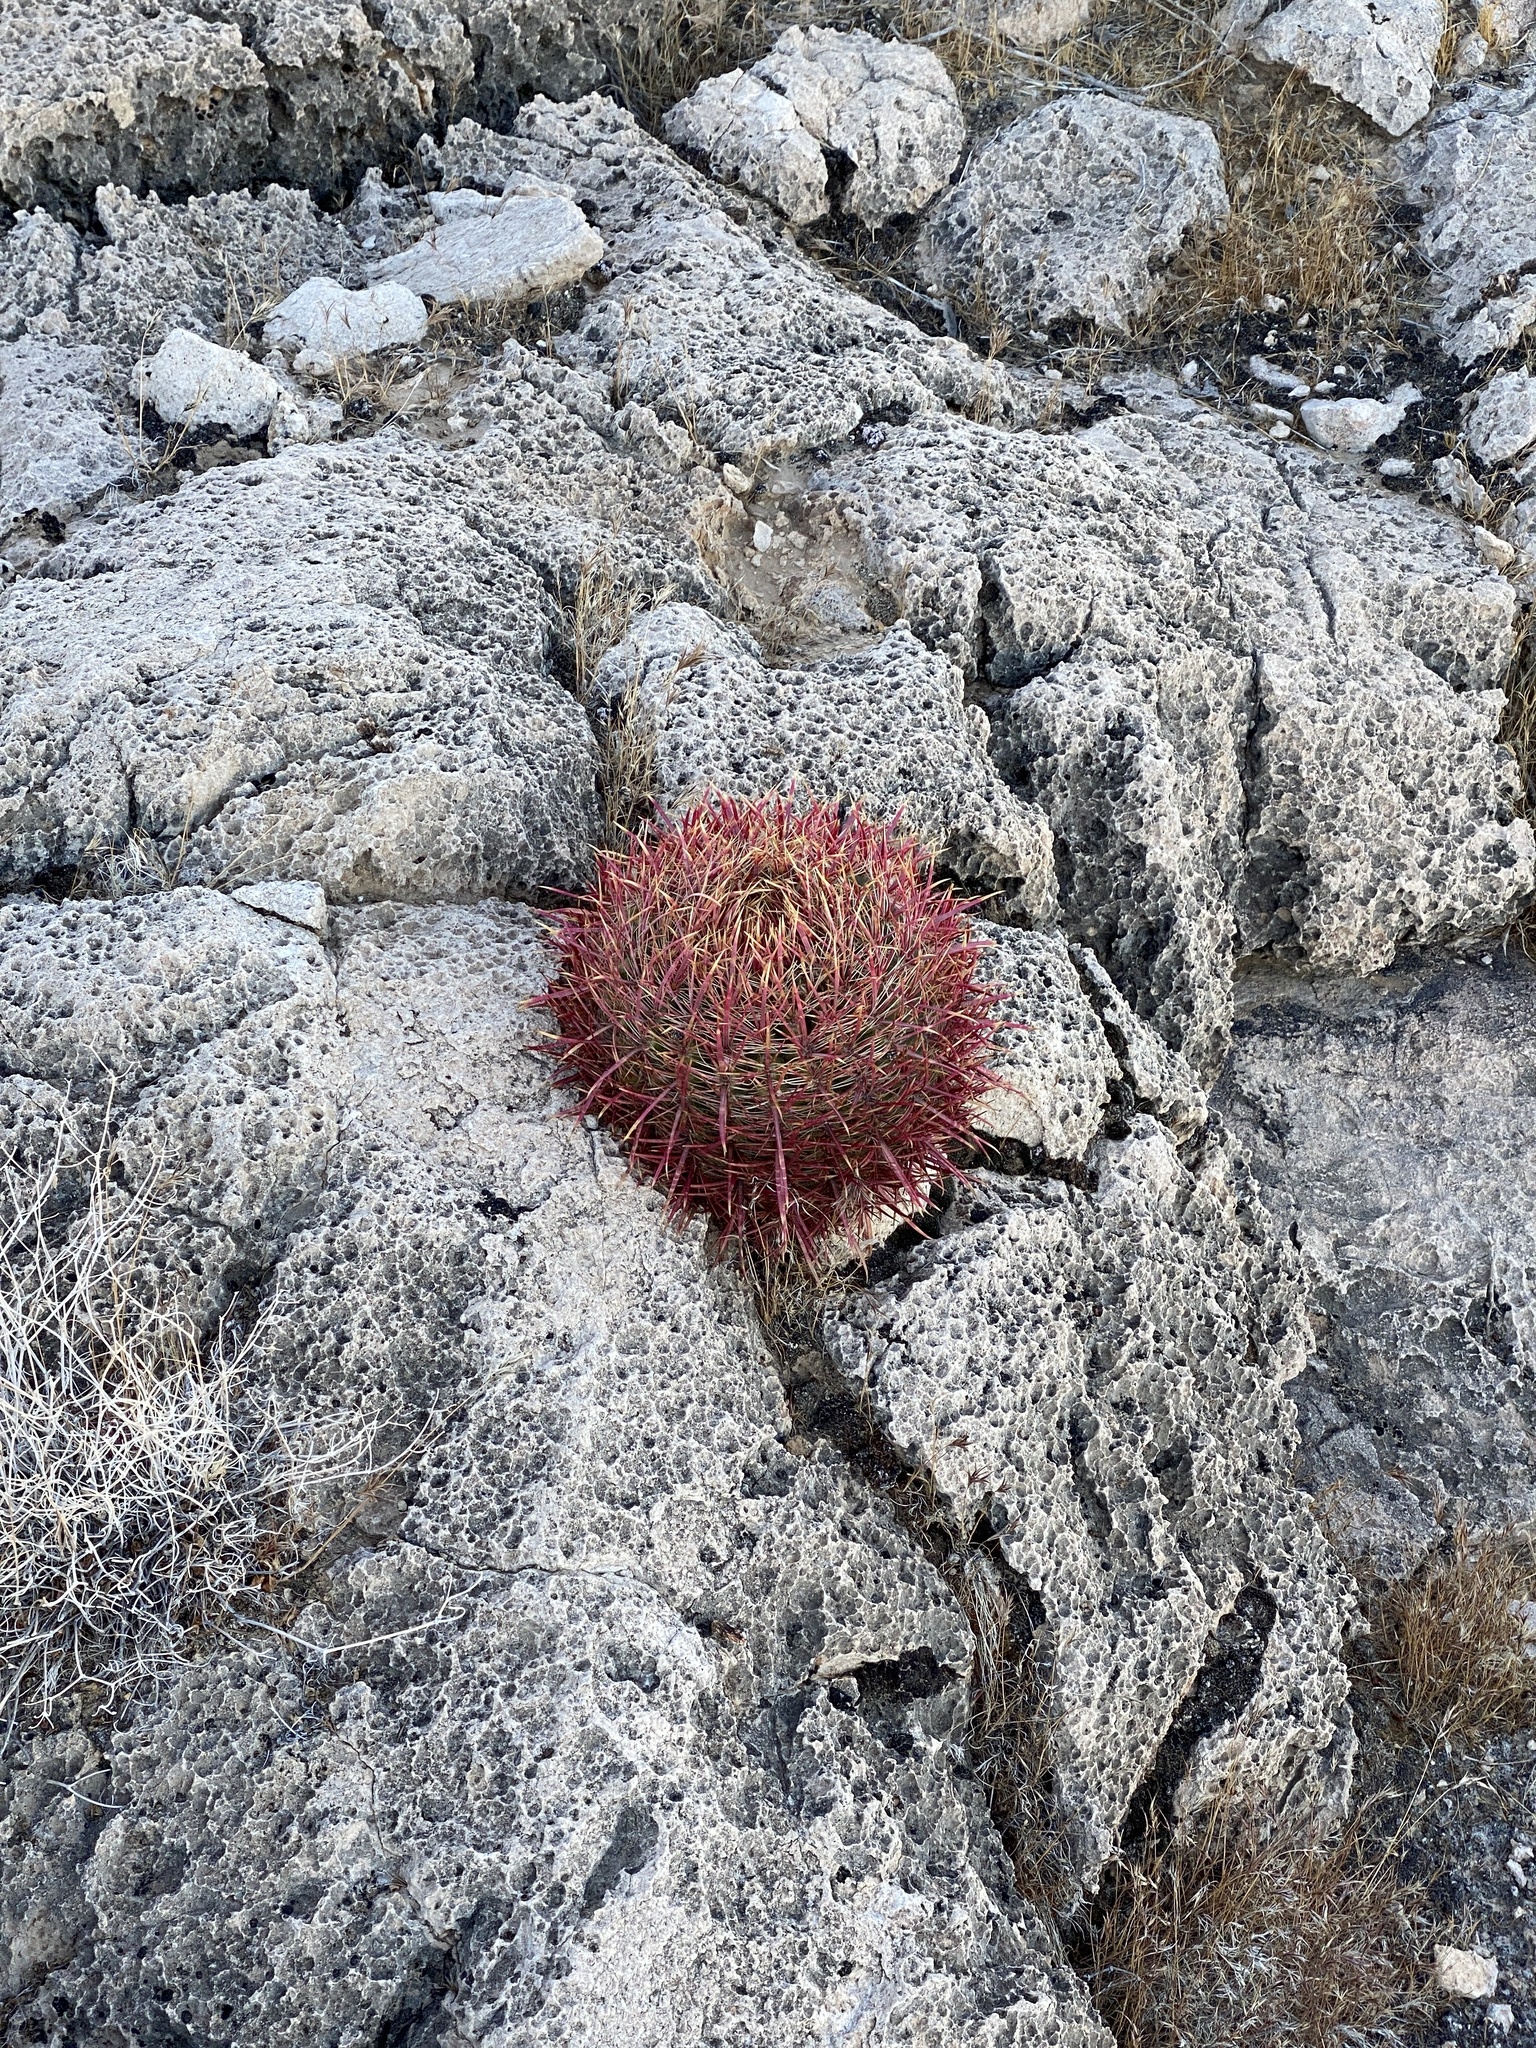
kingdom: Plantae
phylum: Tracheophyta
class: Magnoliopsida
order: Caryophyllales
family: Cactaceae
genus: Ferocactus
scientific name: Ferocactus cylindraceus
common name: California barrel cactus
